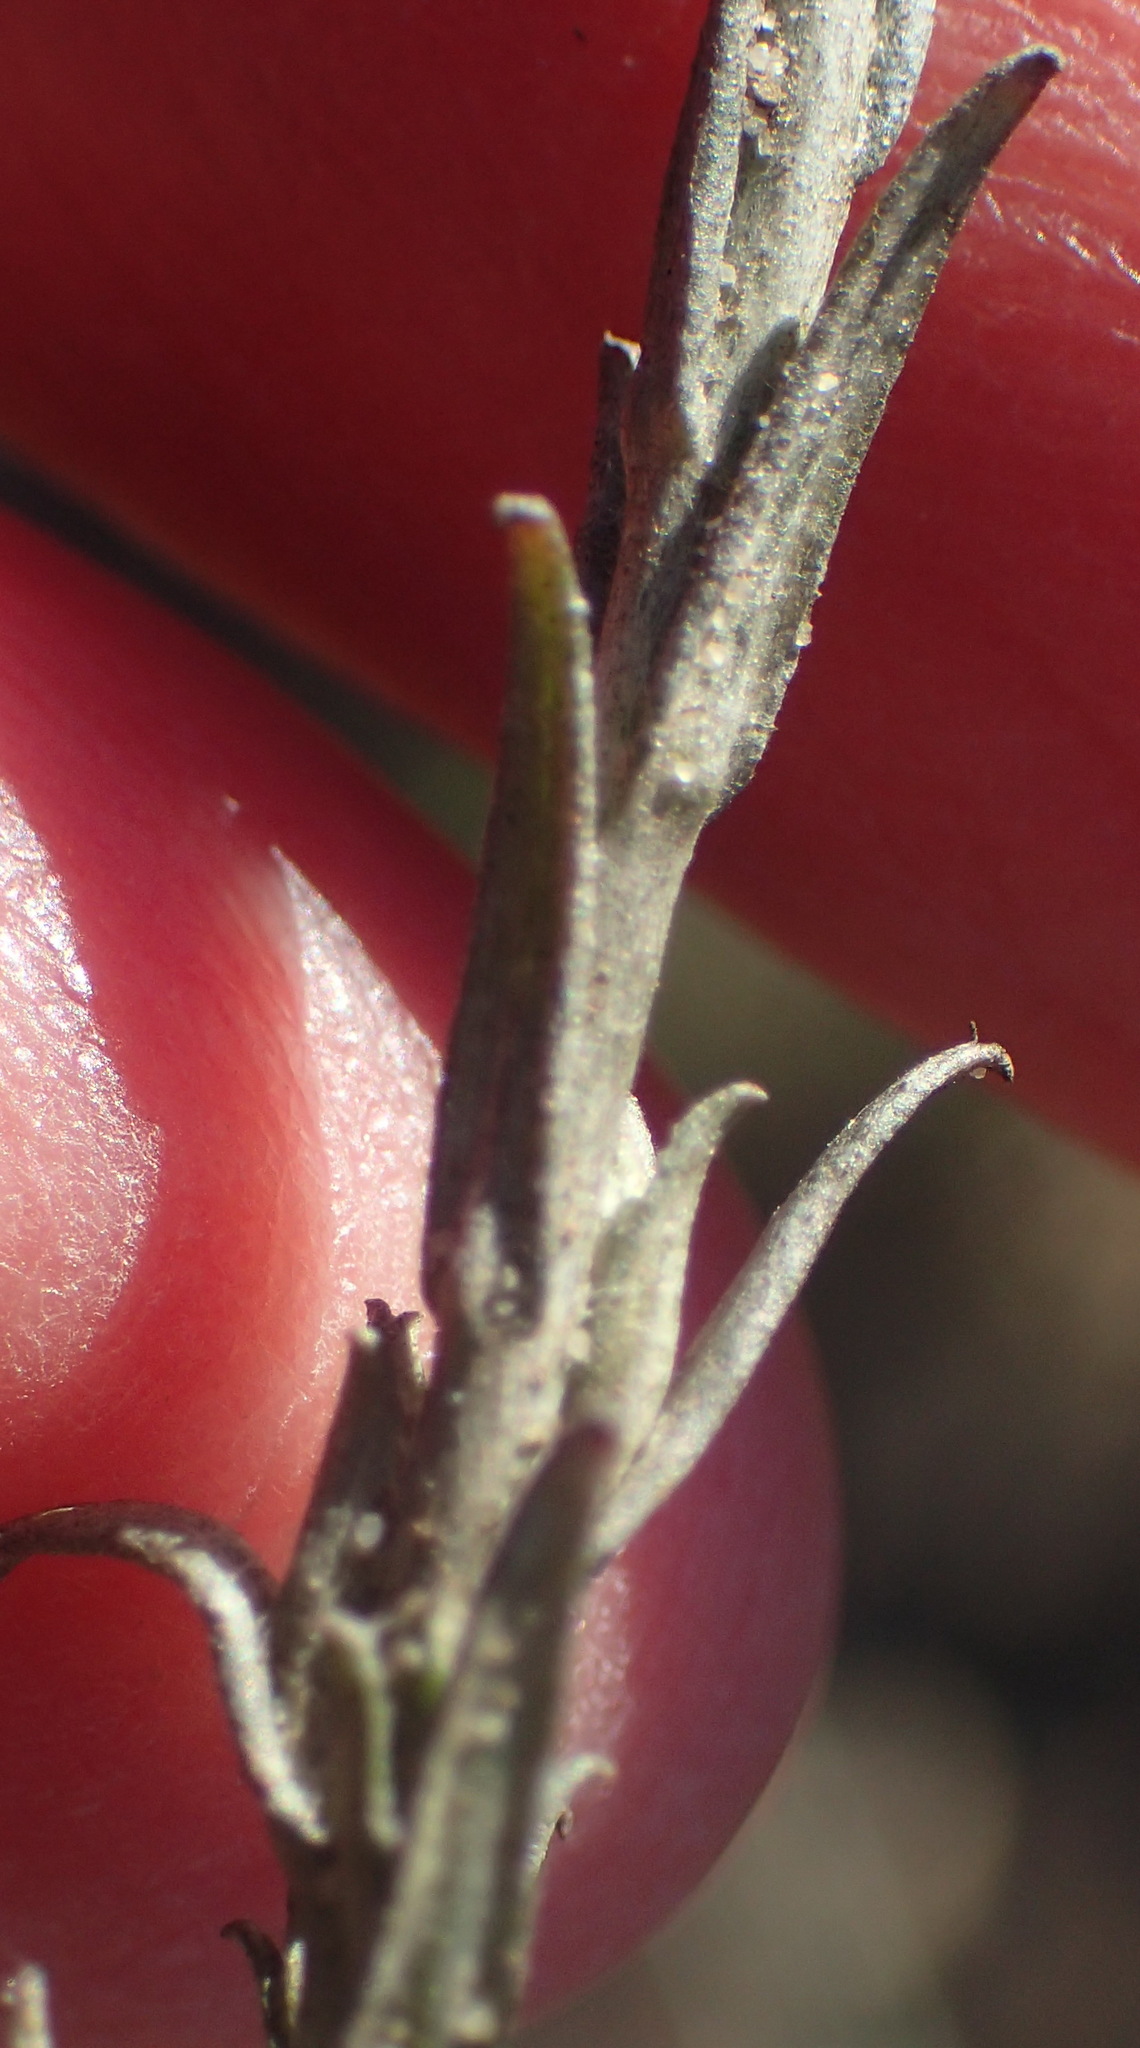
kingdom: Plantae
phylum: Tracheophyta
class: Magnoliopsida
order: Asterales
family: Asteraceae
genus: Helichrysum
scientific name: Helichrysum anomalum
